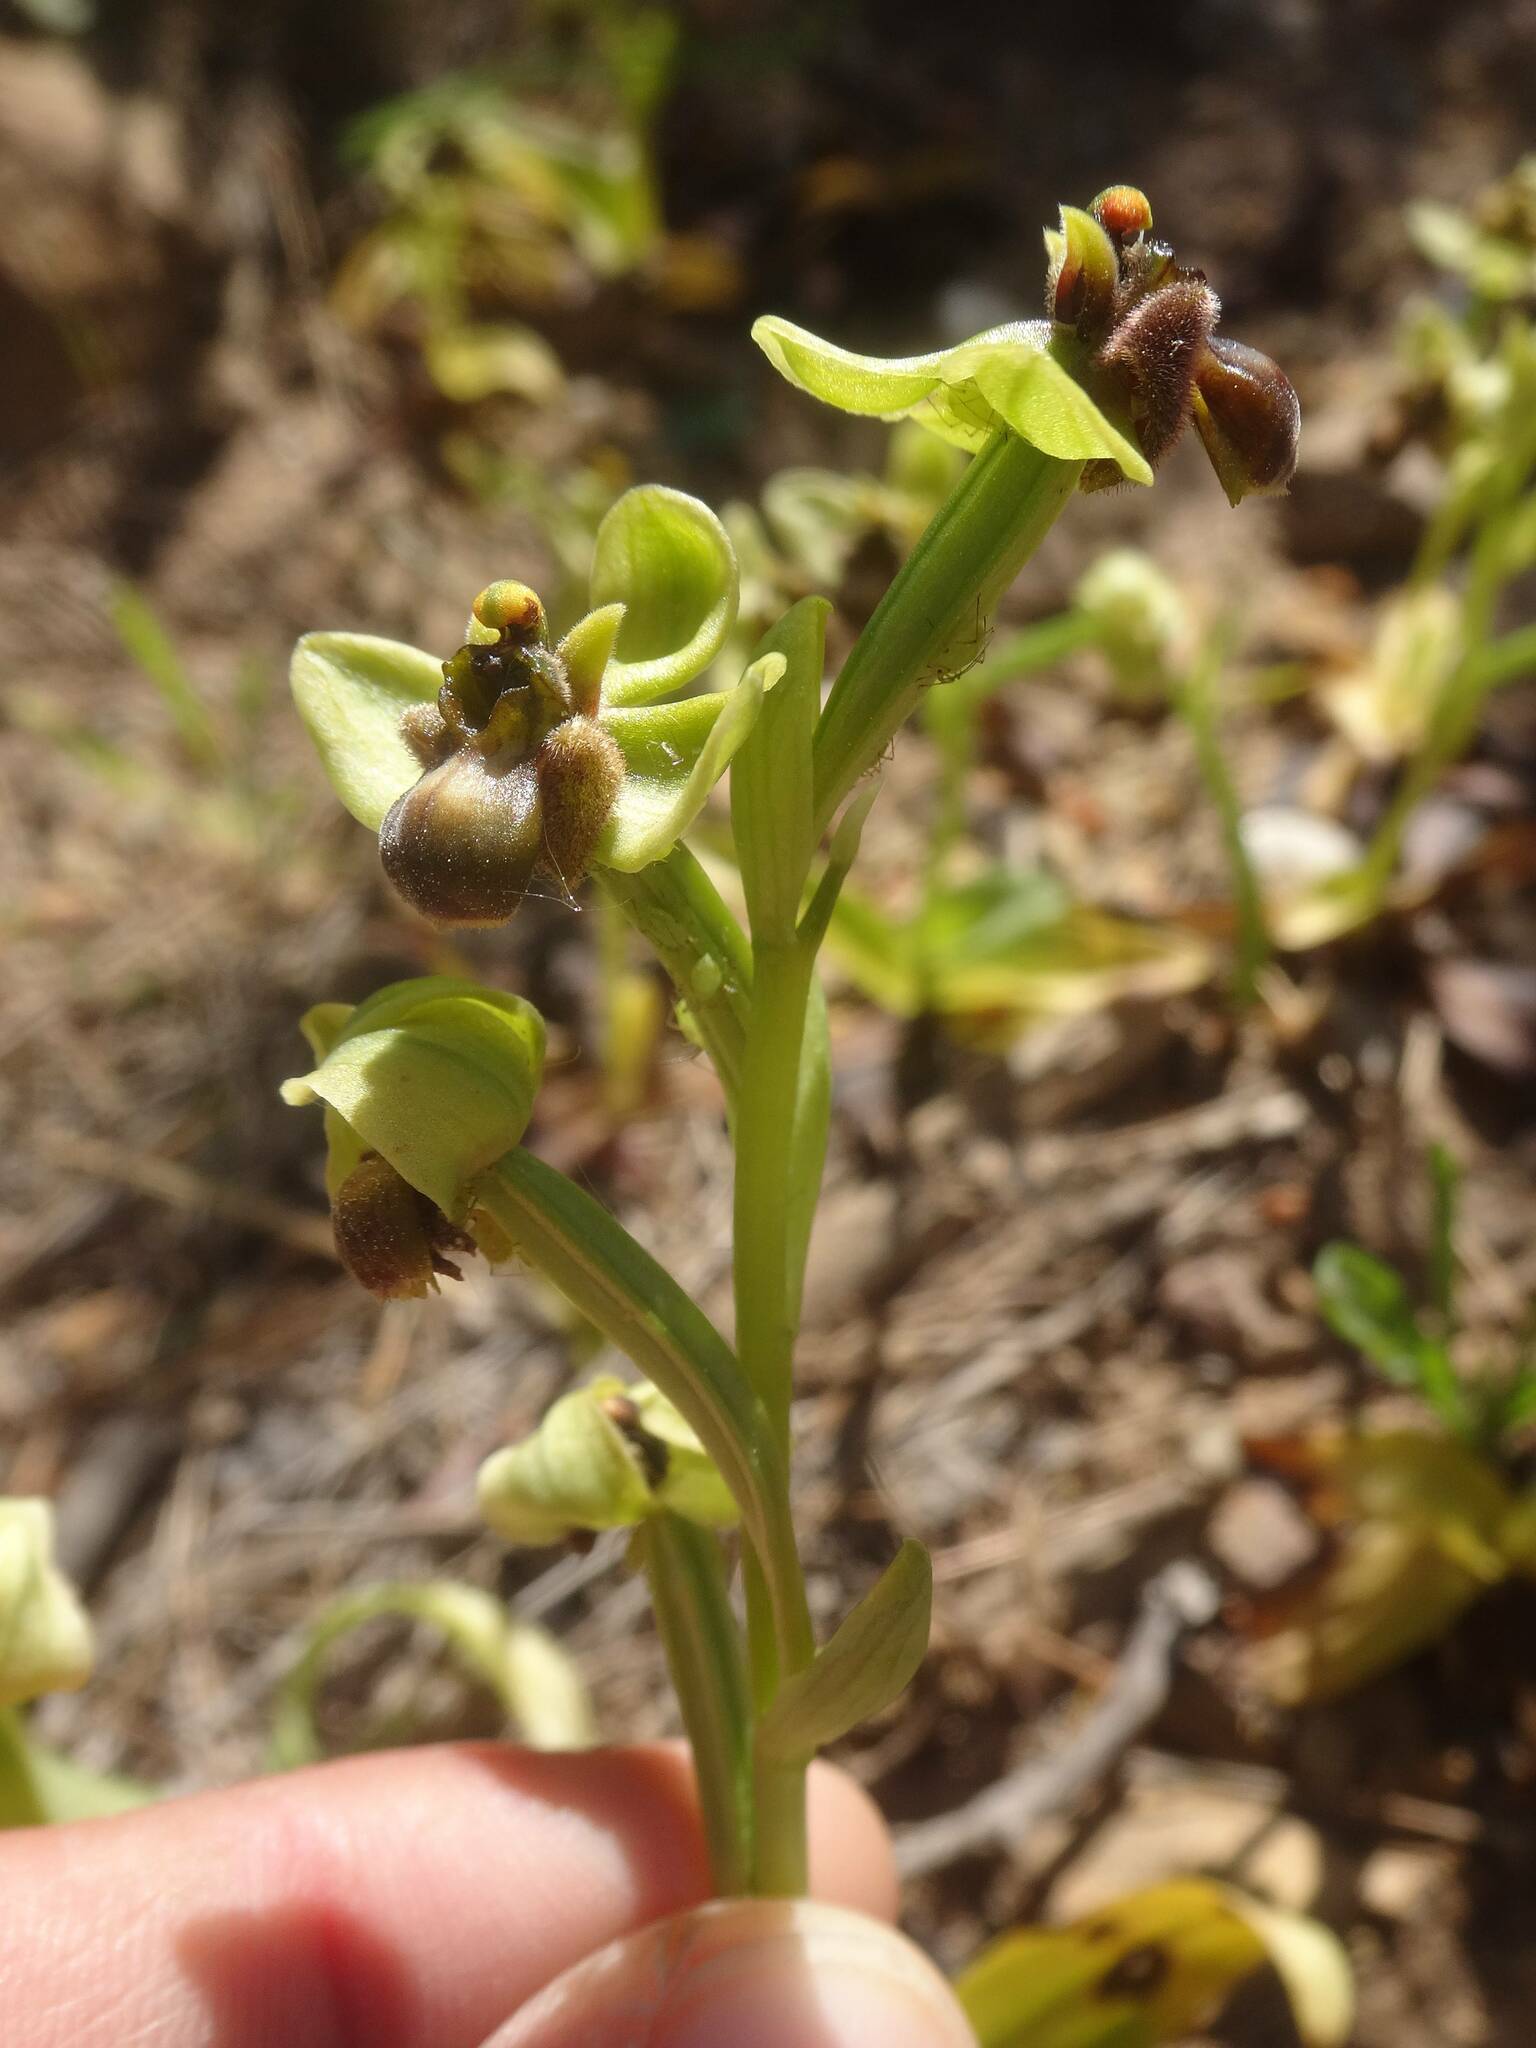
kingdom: Plantae
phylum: Tracheophyta
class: Liliopsida
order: Asparagales
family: Orchidaceae
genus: Ophrys
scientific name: Ophrys bombyliflora
